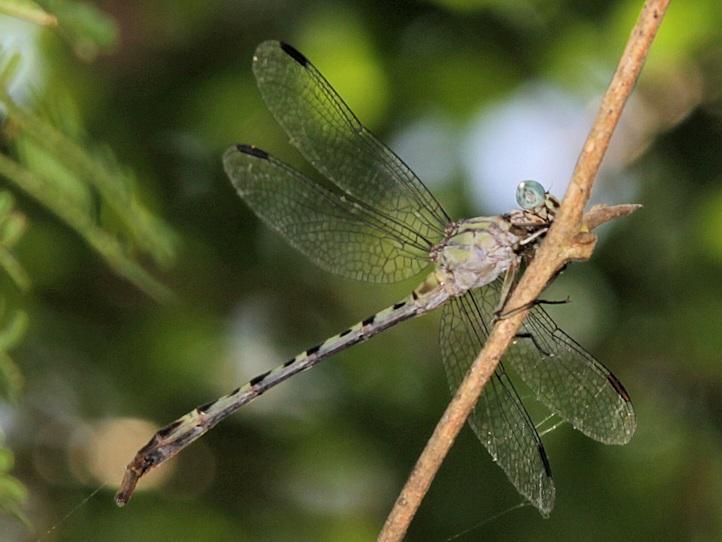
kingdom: Animalia
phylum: Arthropoda
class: Insecta
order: Odonata
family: Gomphidae
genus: Lestinogomphus
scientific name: Lestinogomphus angustus
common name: Spined fairytail
